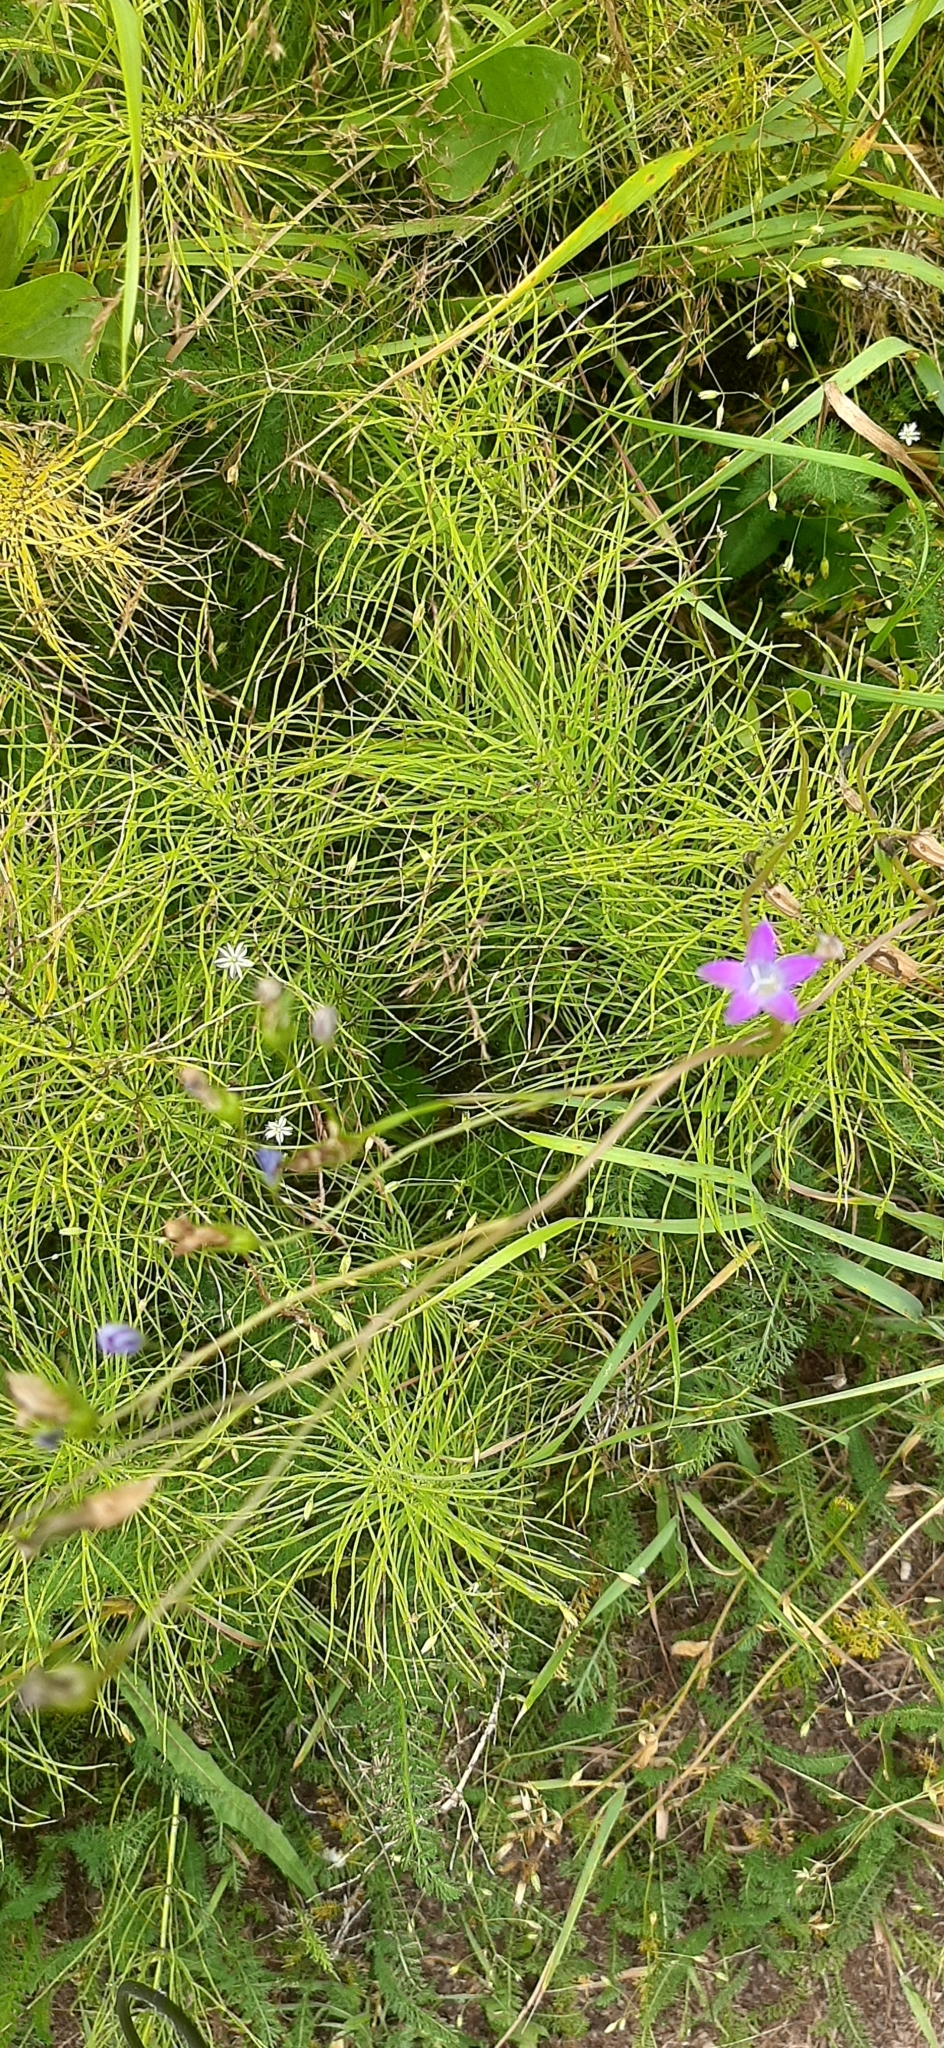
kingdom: Plantae
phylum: Tracheophyta
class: Magnoliopsida
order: Asterales
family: Campanulaceae
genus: Campanula
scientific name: Campanula patula
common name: Spreading bellflower
